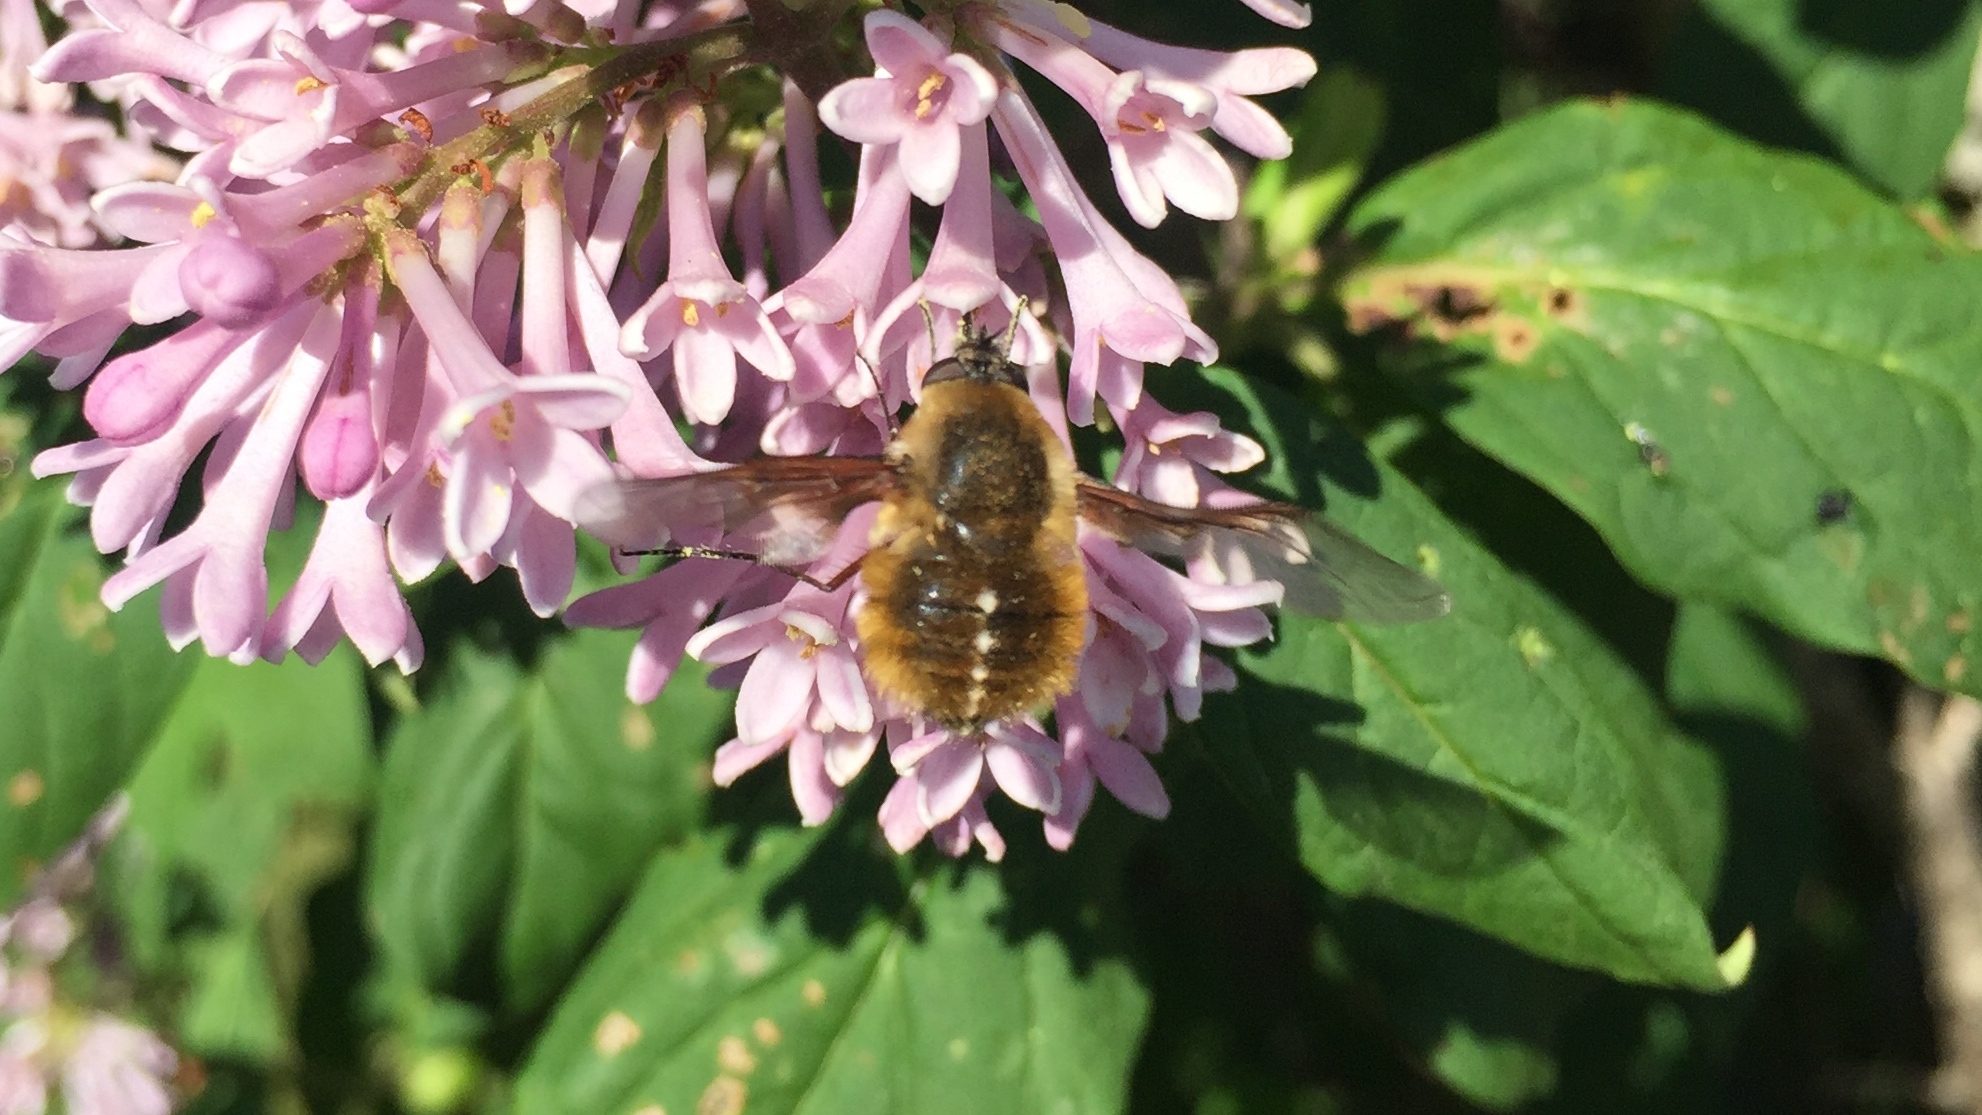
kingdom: Animalia
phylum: Arthropoda
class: Insecta
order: Diptera
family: Bombyliidae
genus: Bombylius
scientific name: Bombylius mexicanus
